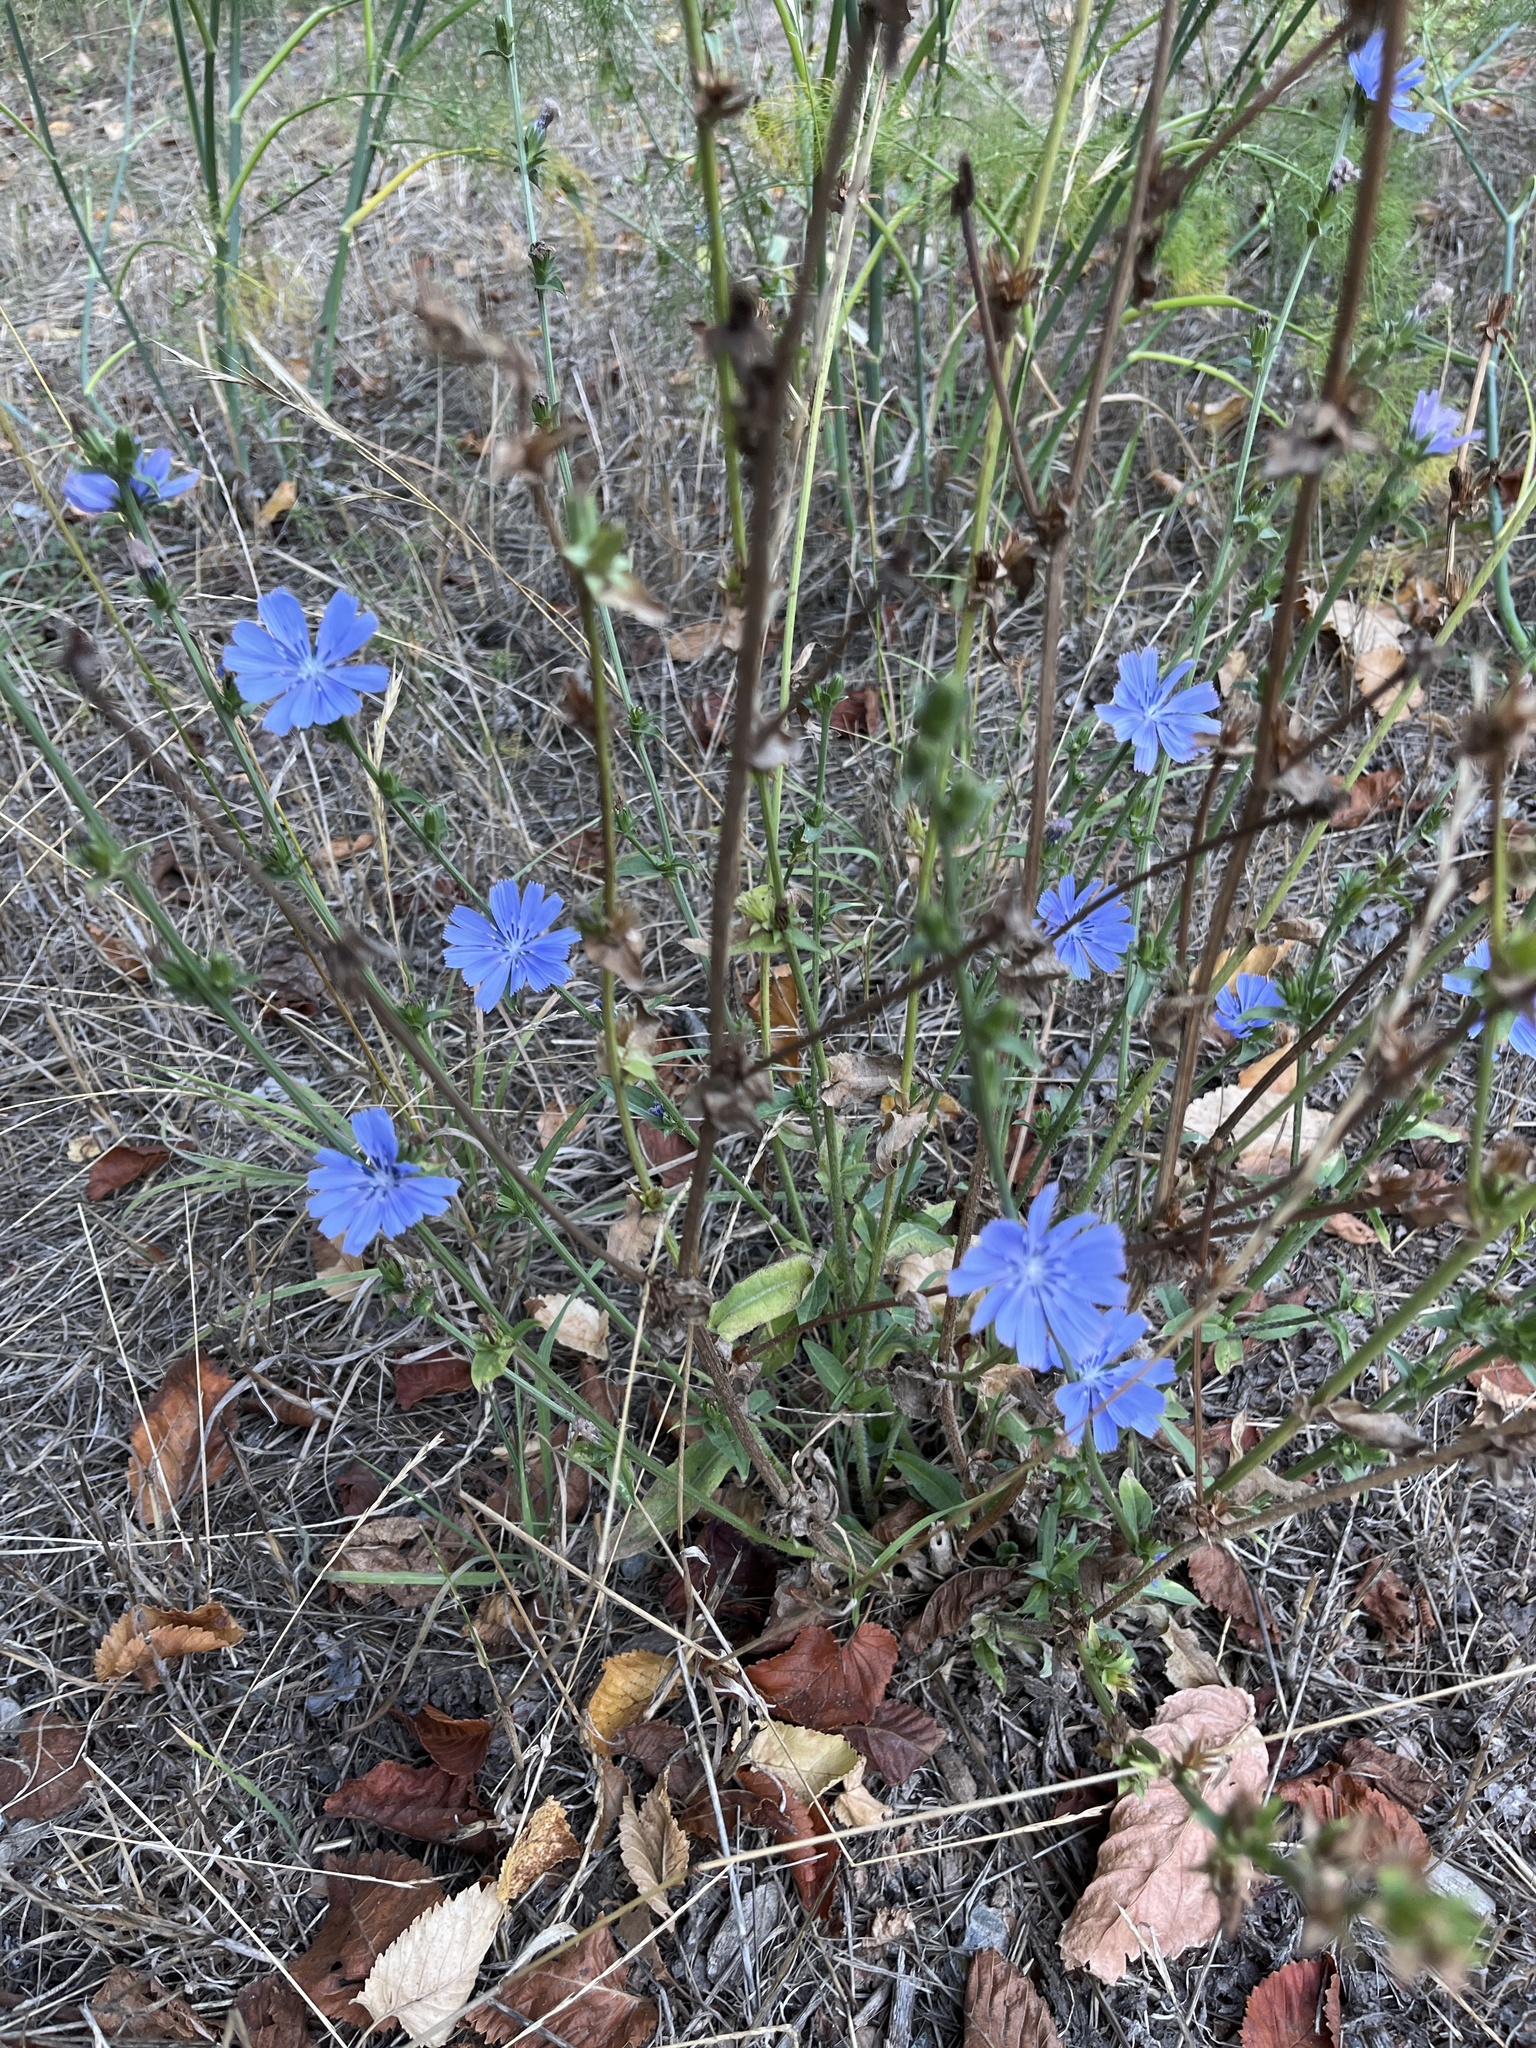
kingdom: Plantae
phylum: Tracheophyta
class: Magnoliopsida
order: Asterales
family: Asteraceae
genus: Cichorium
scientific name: Cichorium intybus
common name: Chicory
